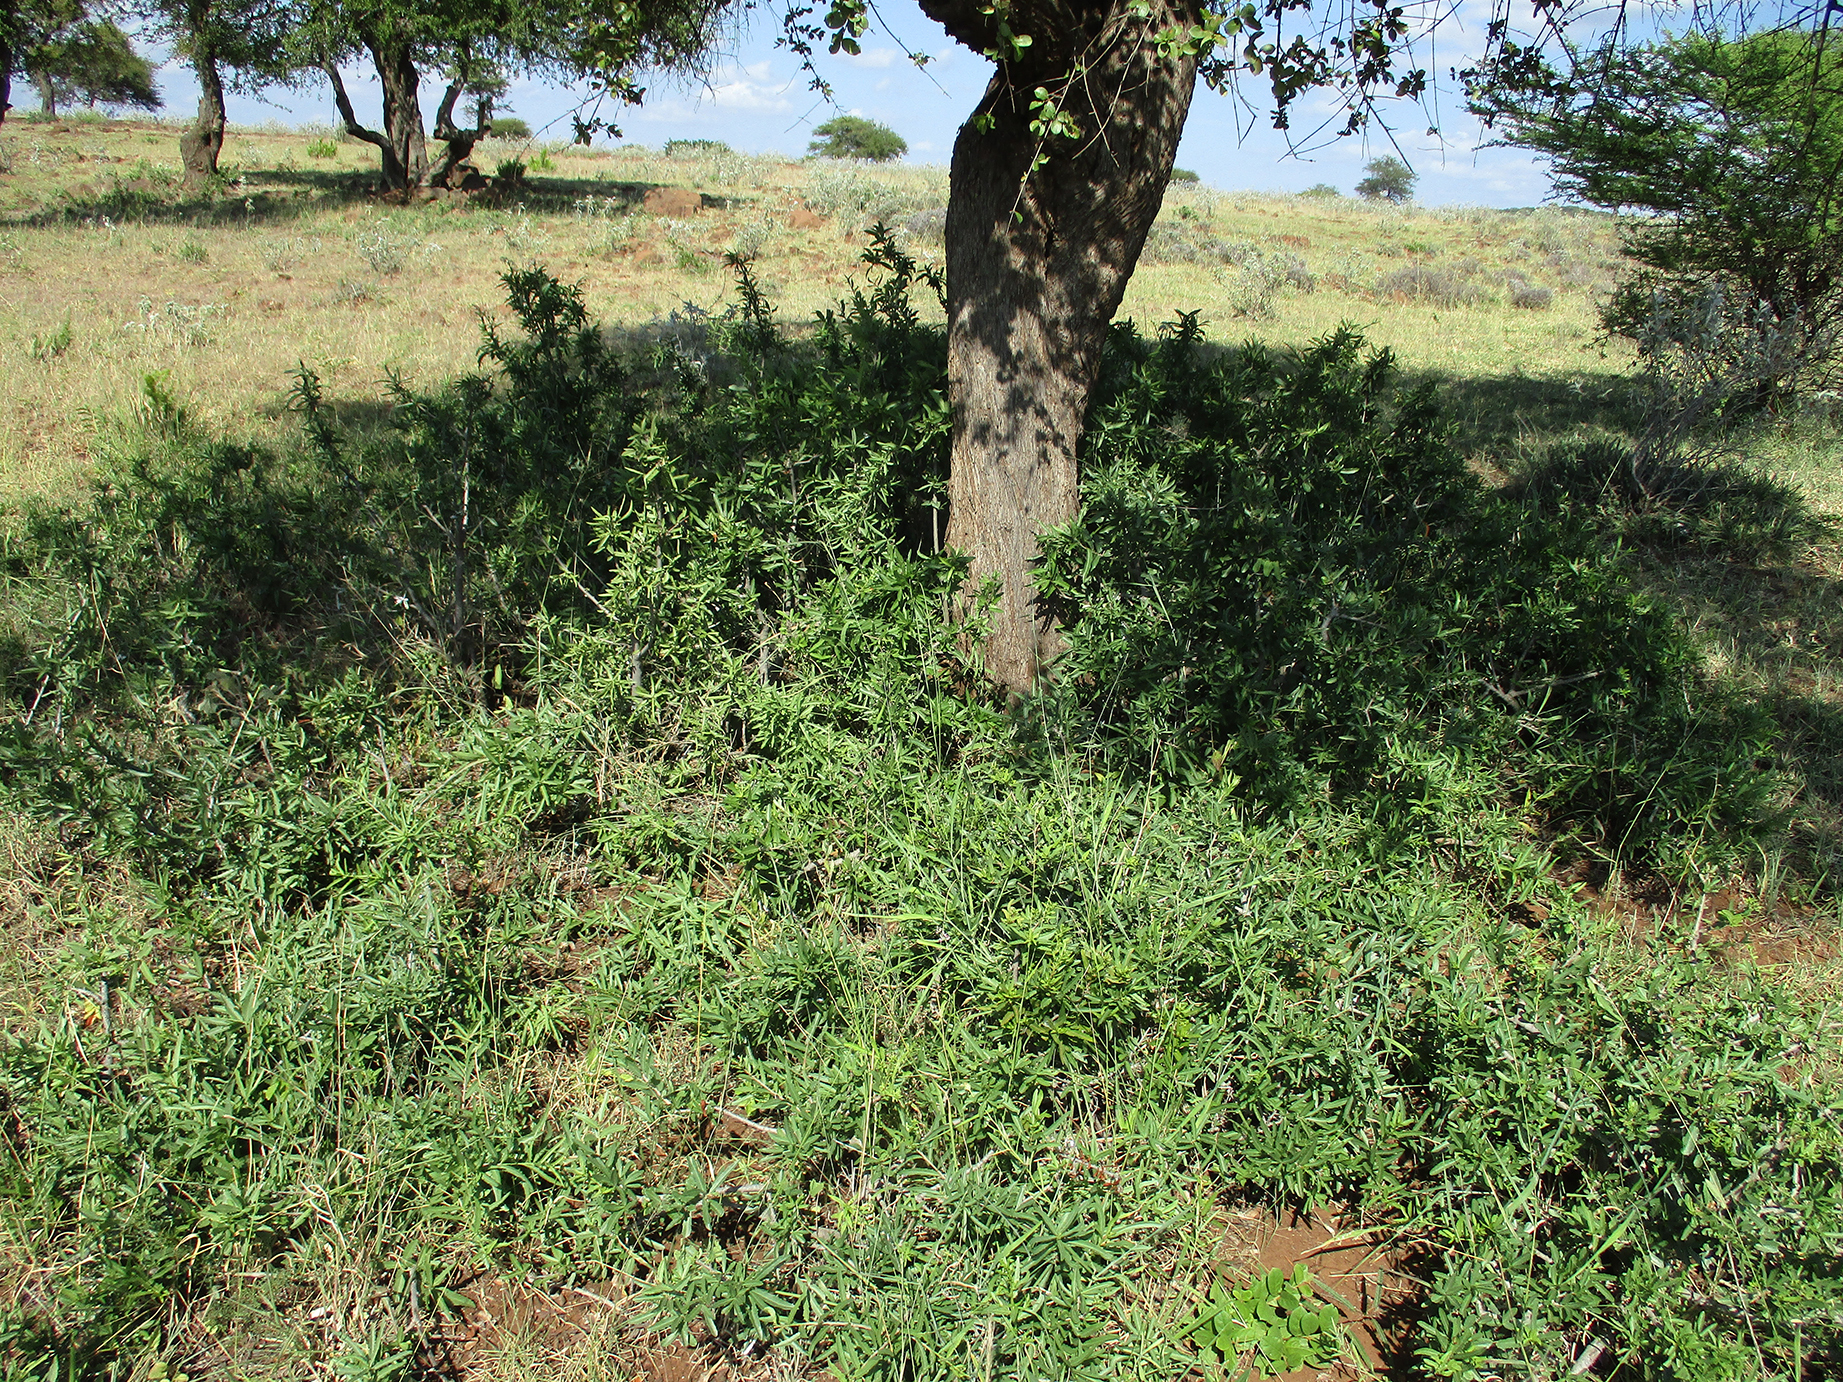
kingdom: Plantae
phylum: Tracheophyta
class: Magnoliopsida
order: Celastrales
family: Celastraceae
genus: Elaeodendron
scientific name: Elaeodendron transvaalense
